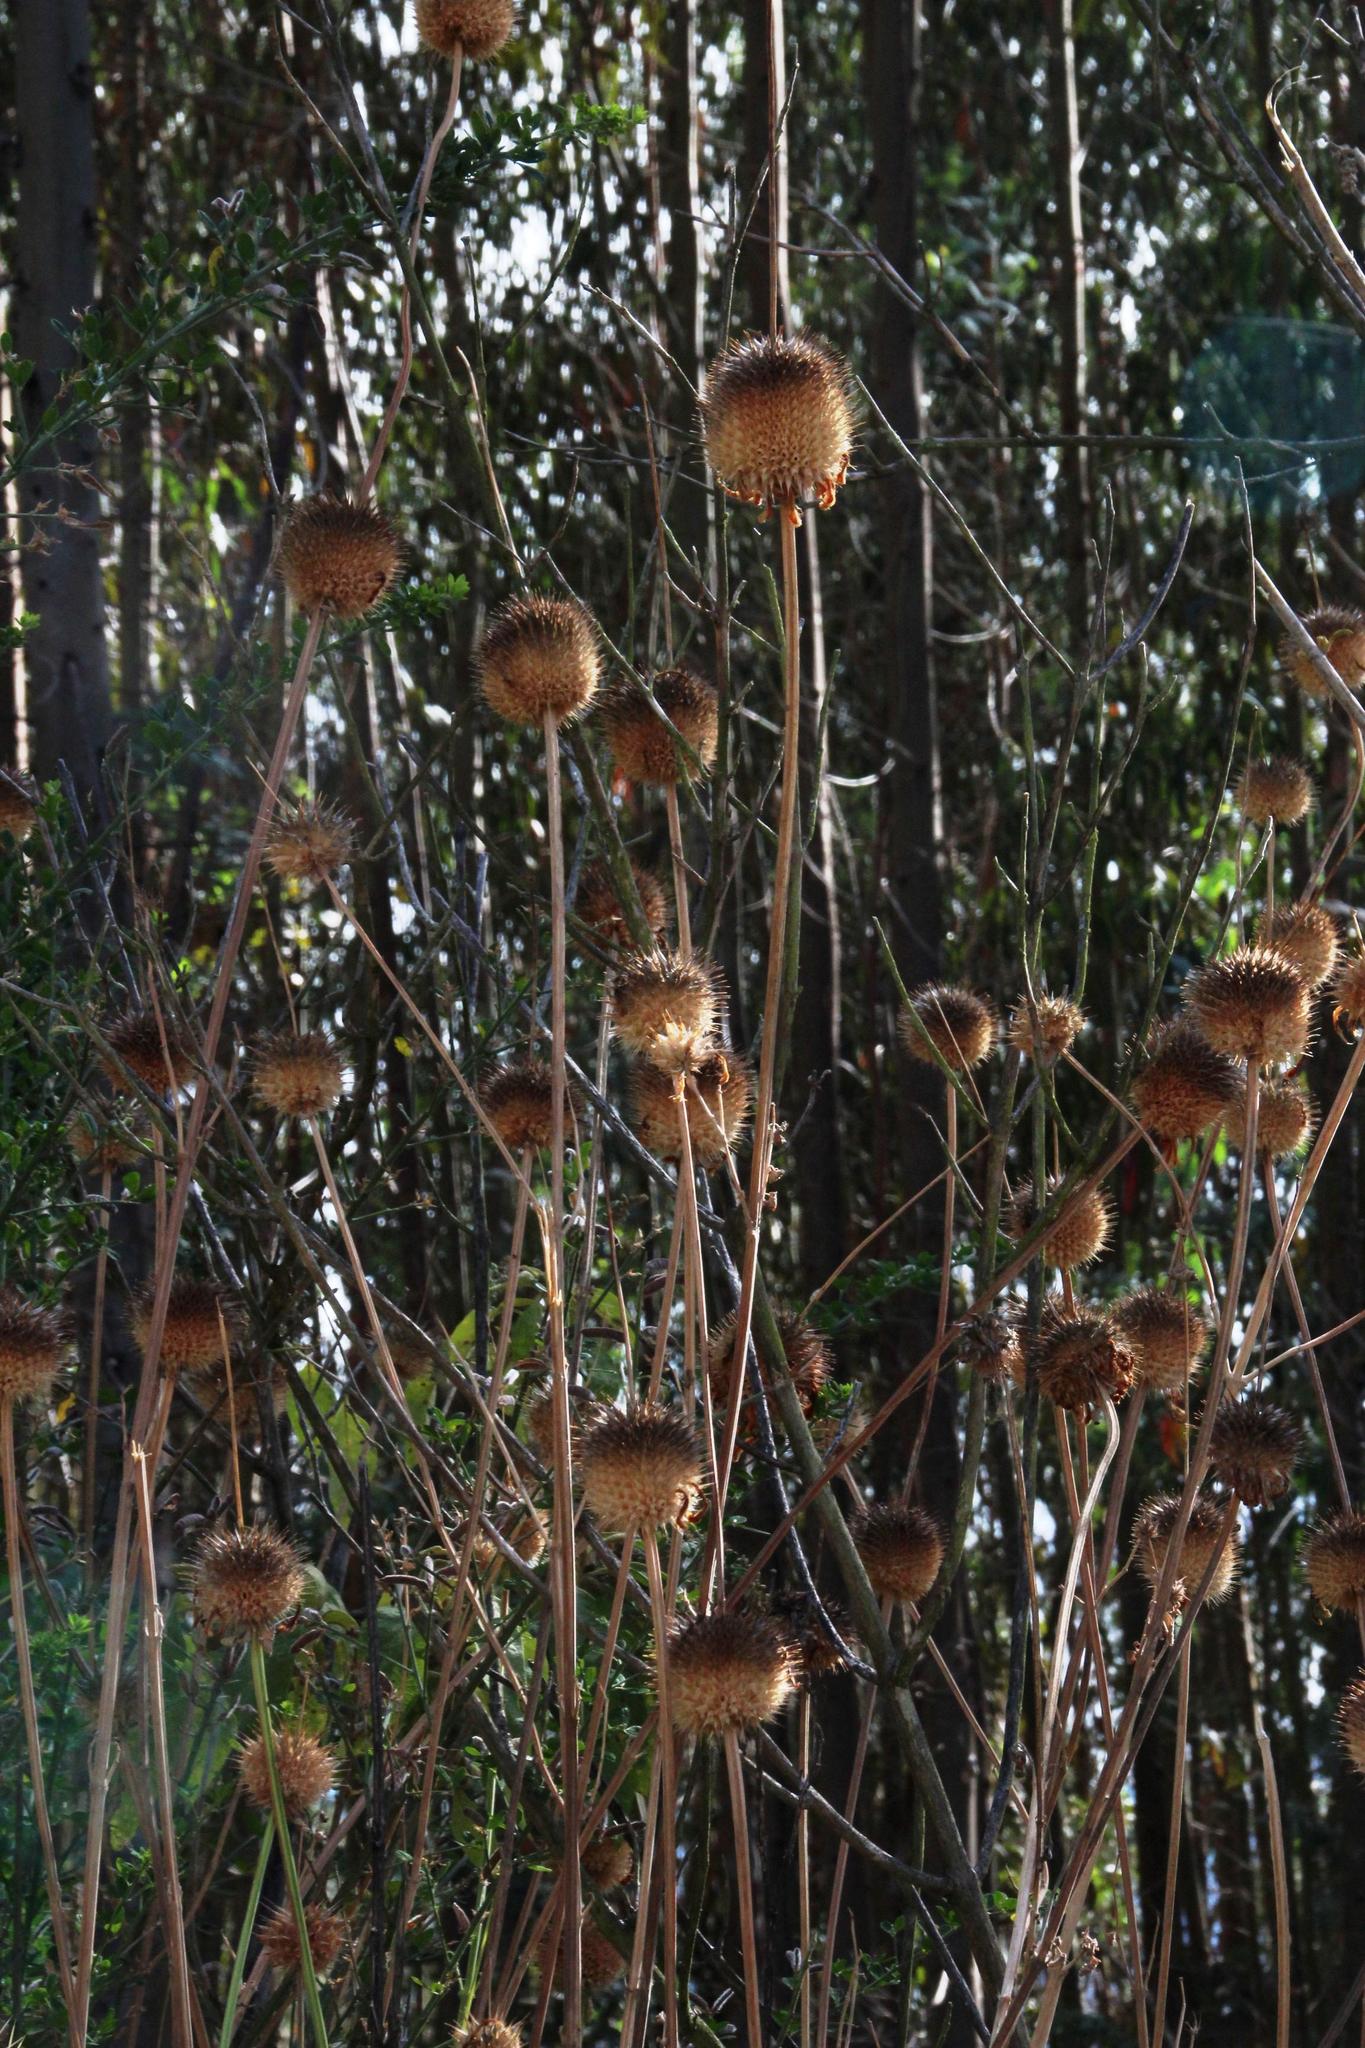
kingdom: Plantae
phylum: Tracheophyta
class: Magnoliopsida
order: Lamiales
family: Lamiaceae
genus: Leonotis
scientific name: Leonotis nepetifolia
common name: Christmas candlestick
